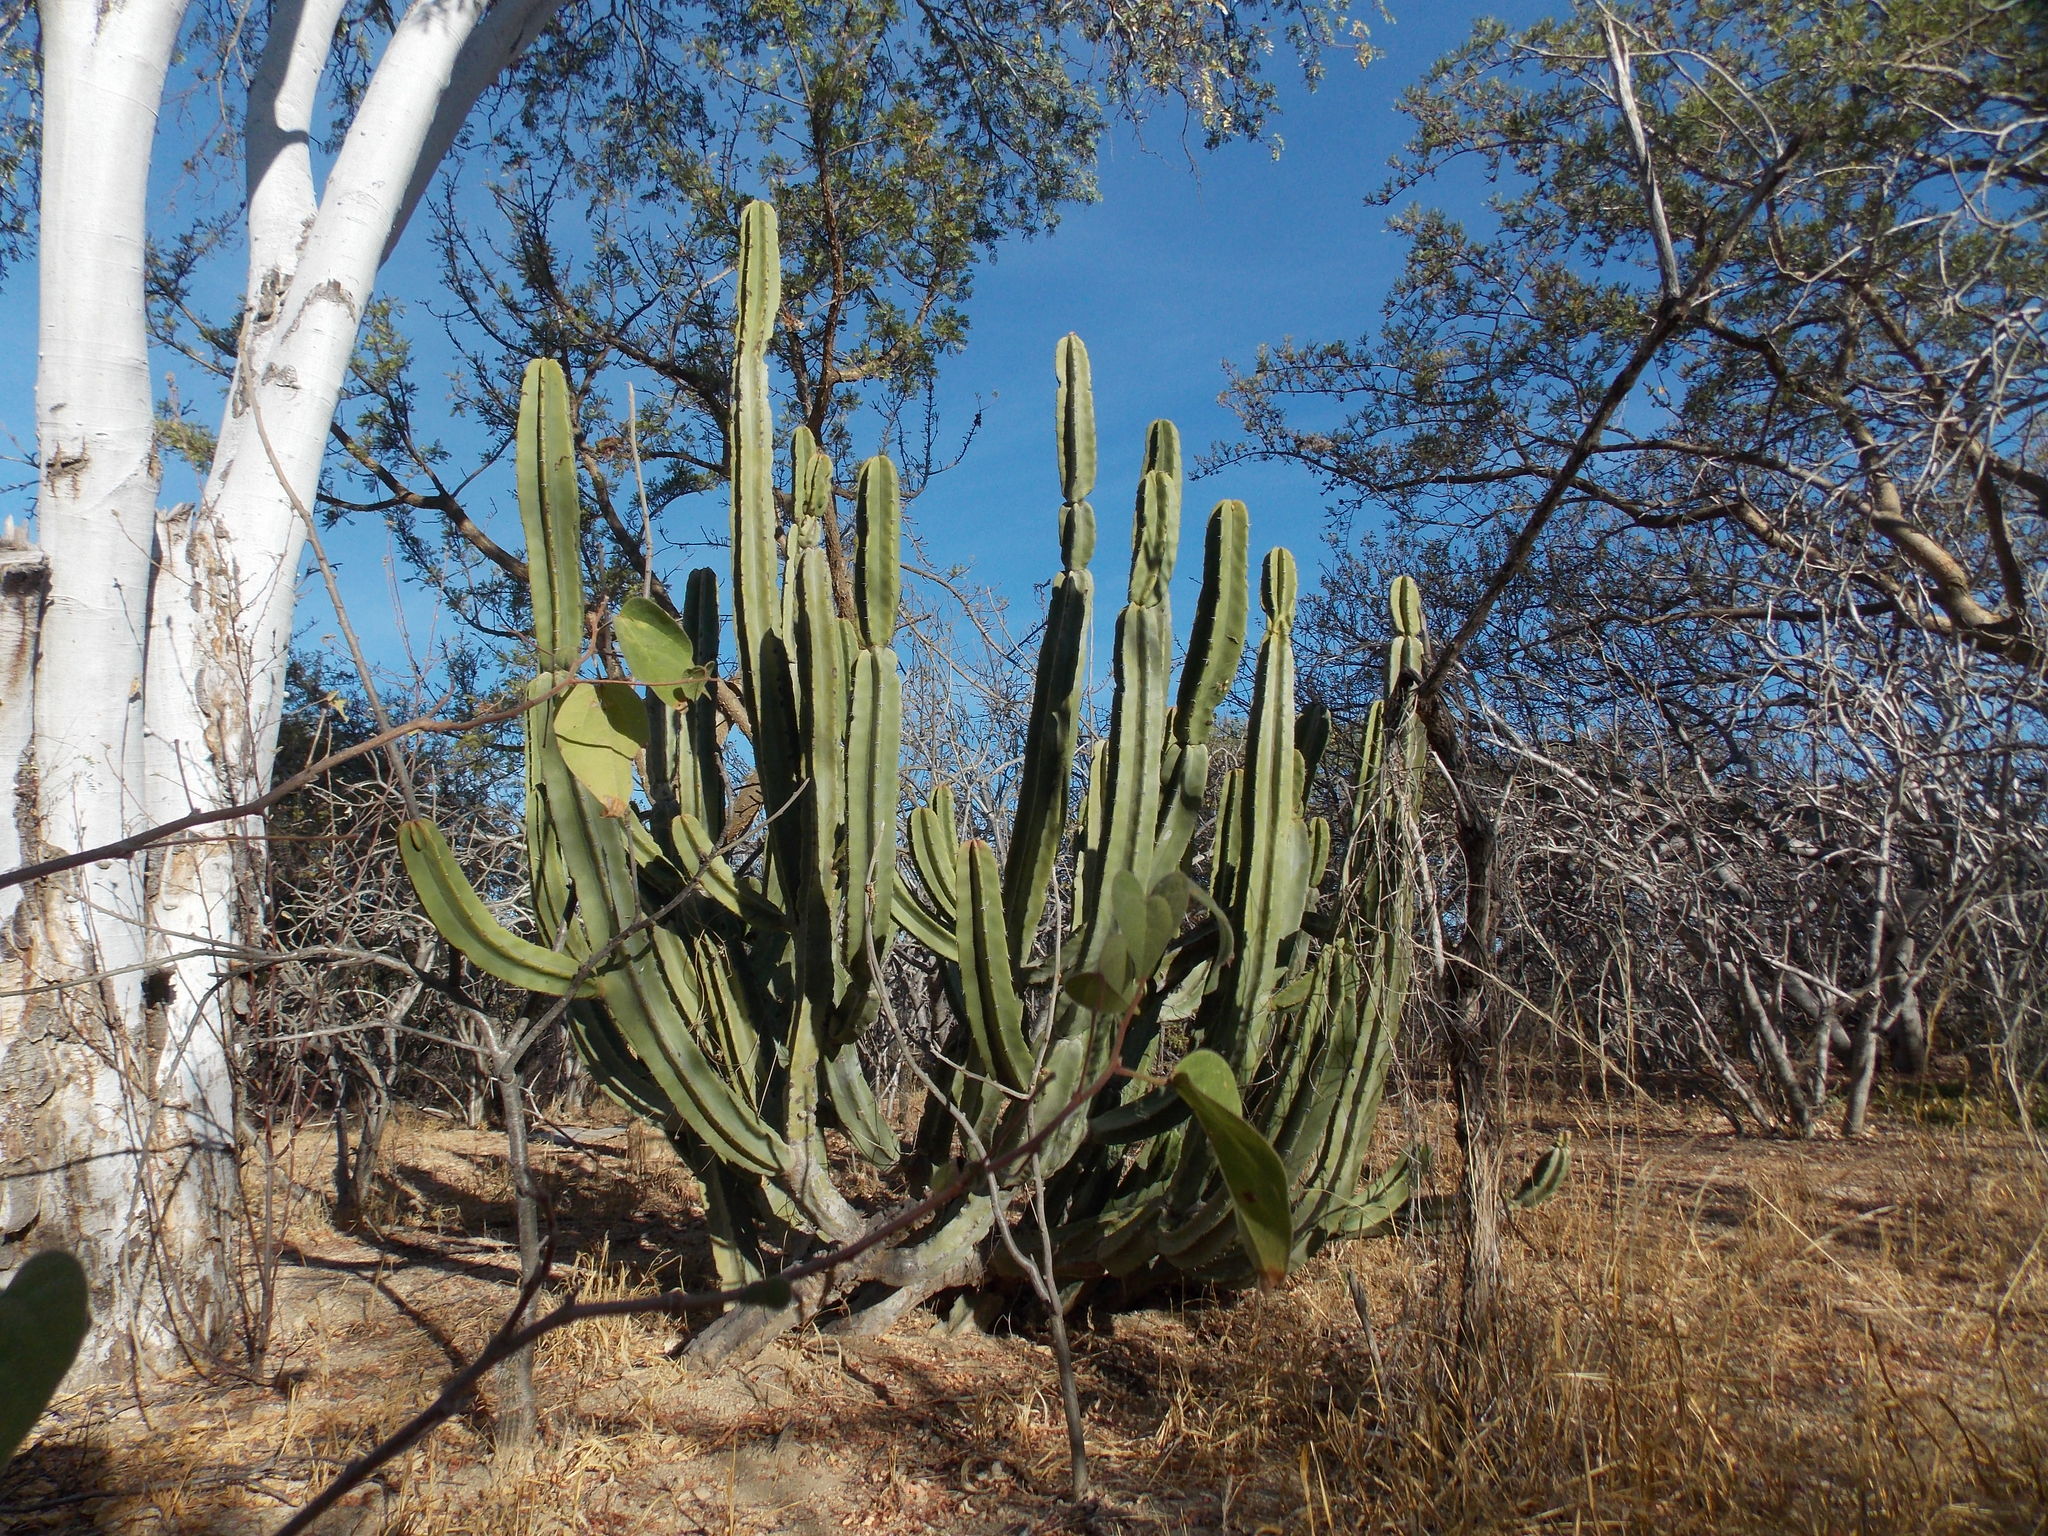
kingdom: Plantae
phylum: Tracheophyta
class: Magnoliopsida
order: Caryophyllales
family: Cactaceae
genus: Pachycereus
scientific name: Pachycereus schottii
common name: Senita cactus
